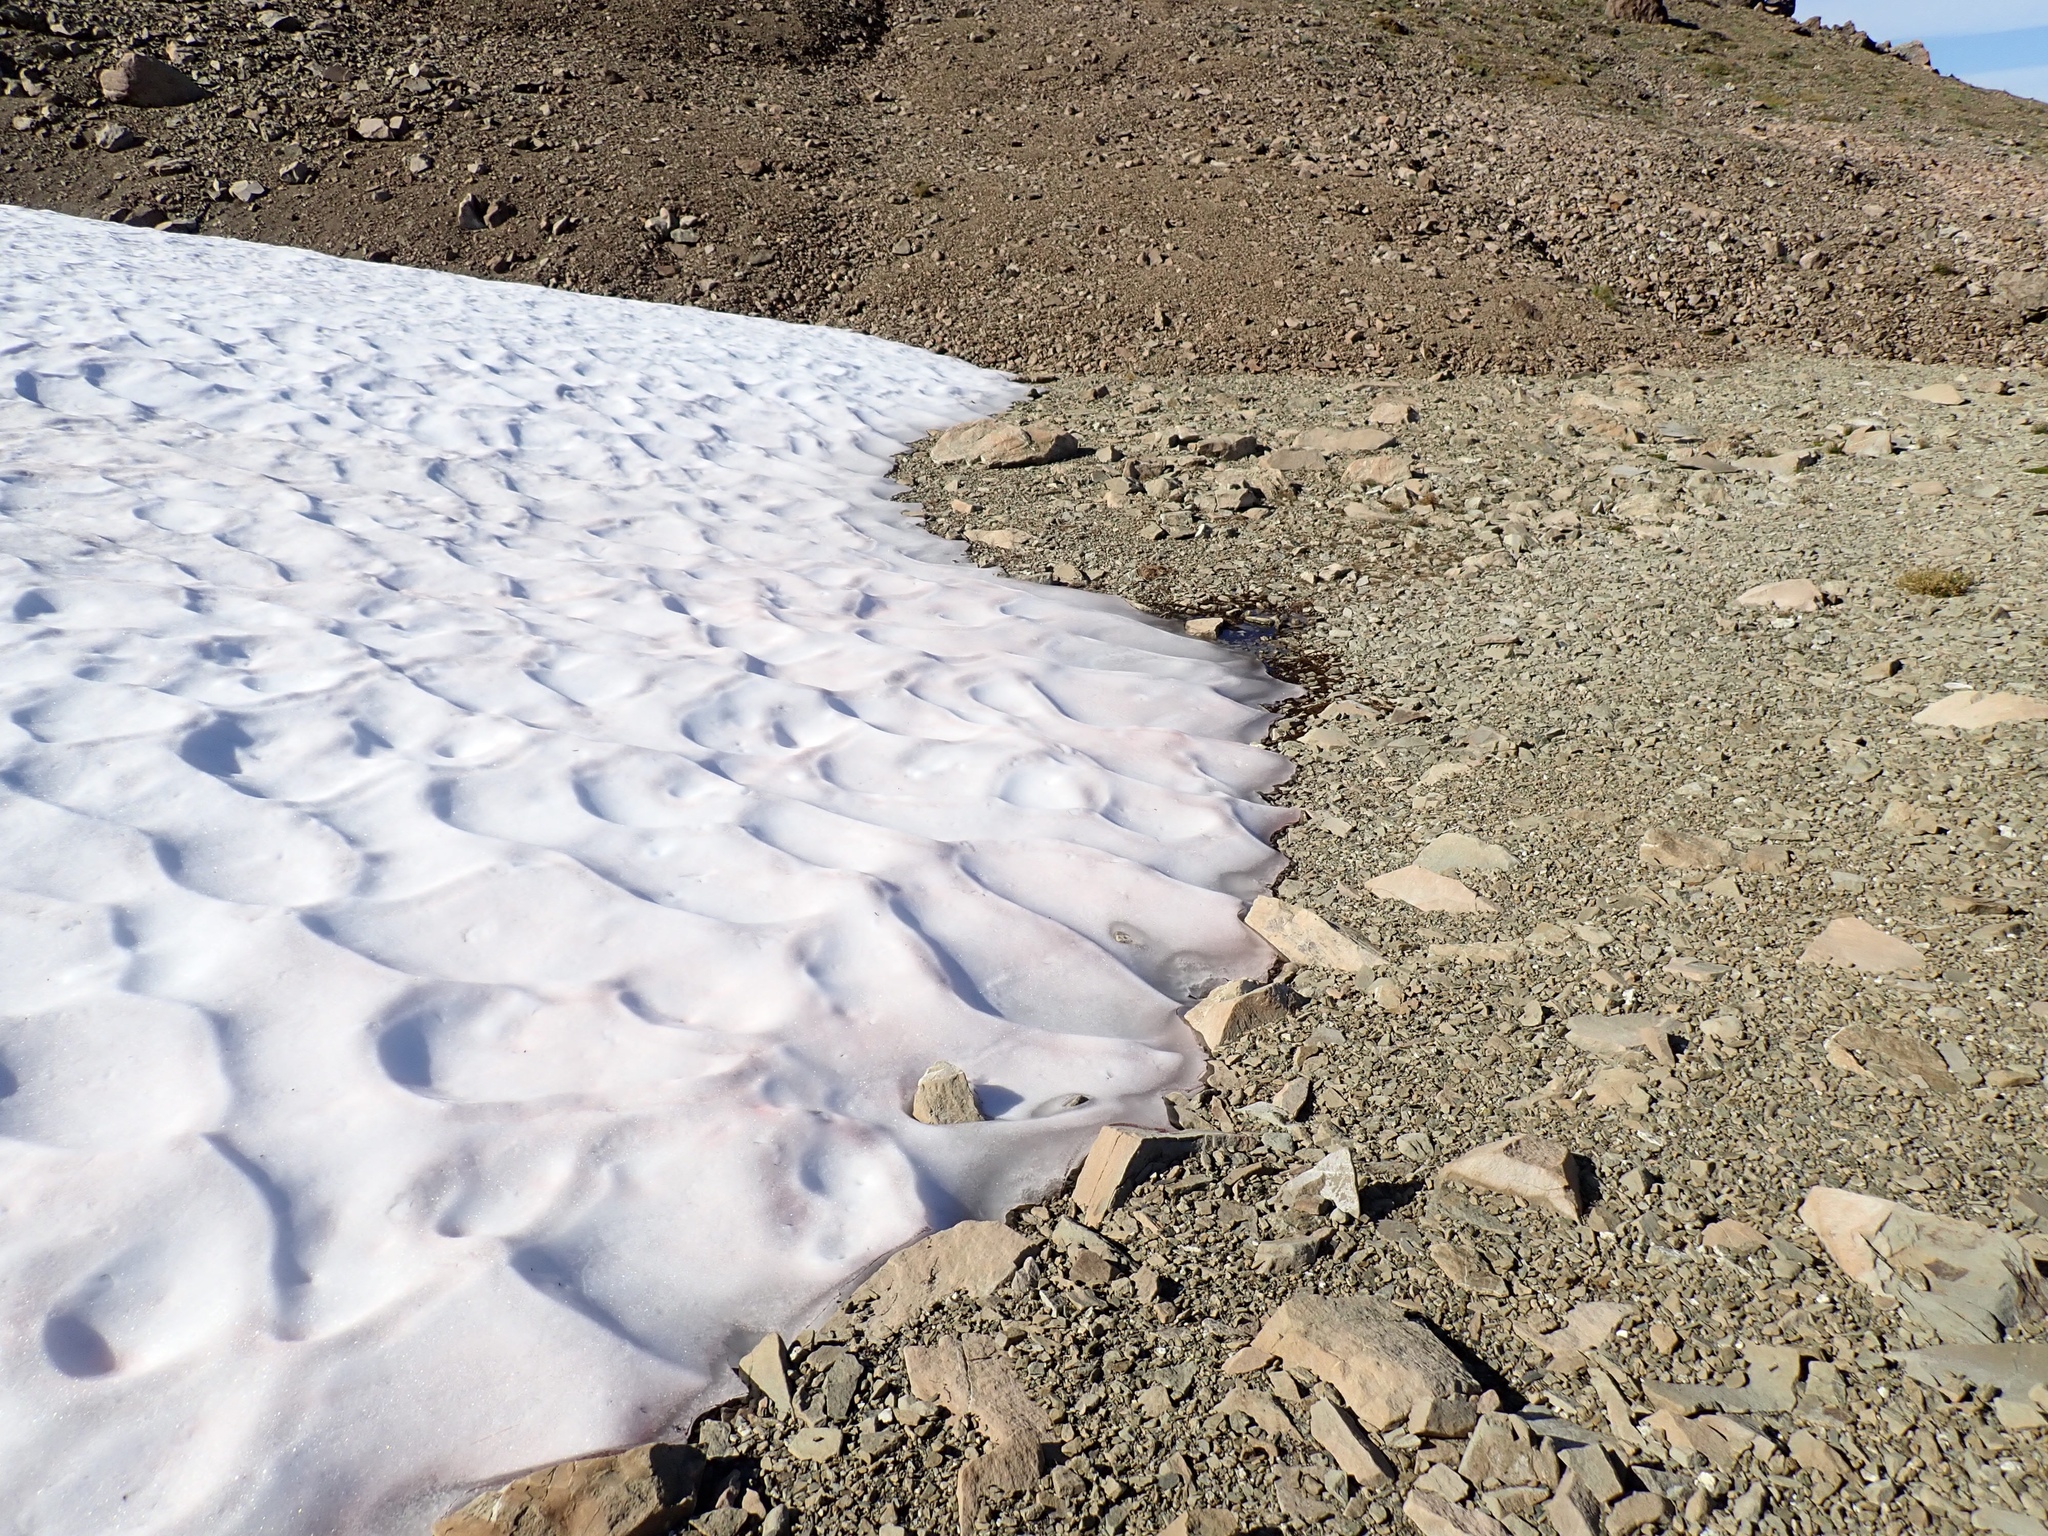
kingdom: Plantae
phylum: Chlorophyta
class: Chlorophyceae
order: Volvocales
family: Chlamydomonadaceae
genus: Chlamydomonas
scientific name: Chlamydomonas nivalis
